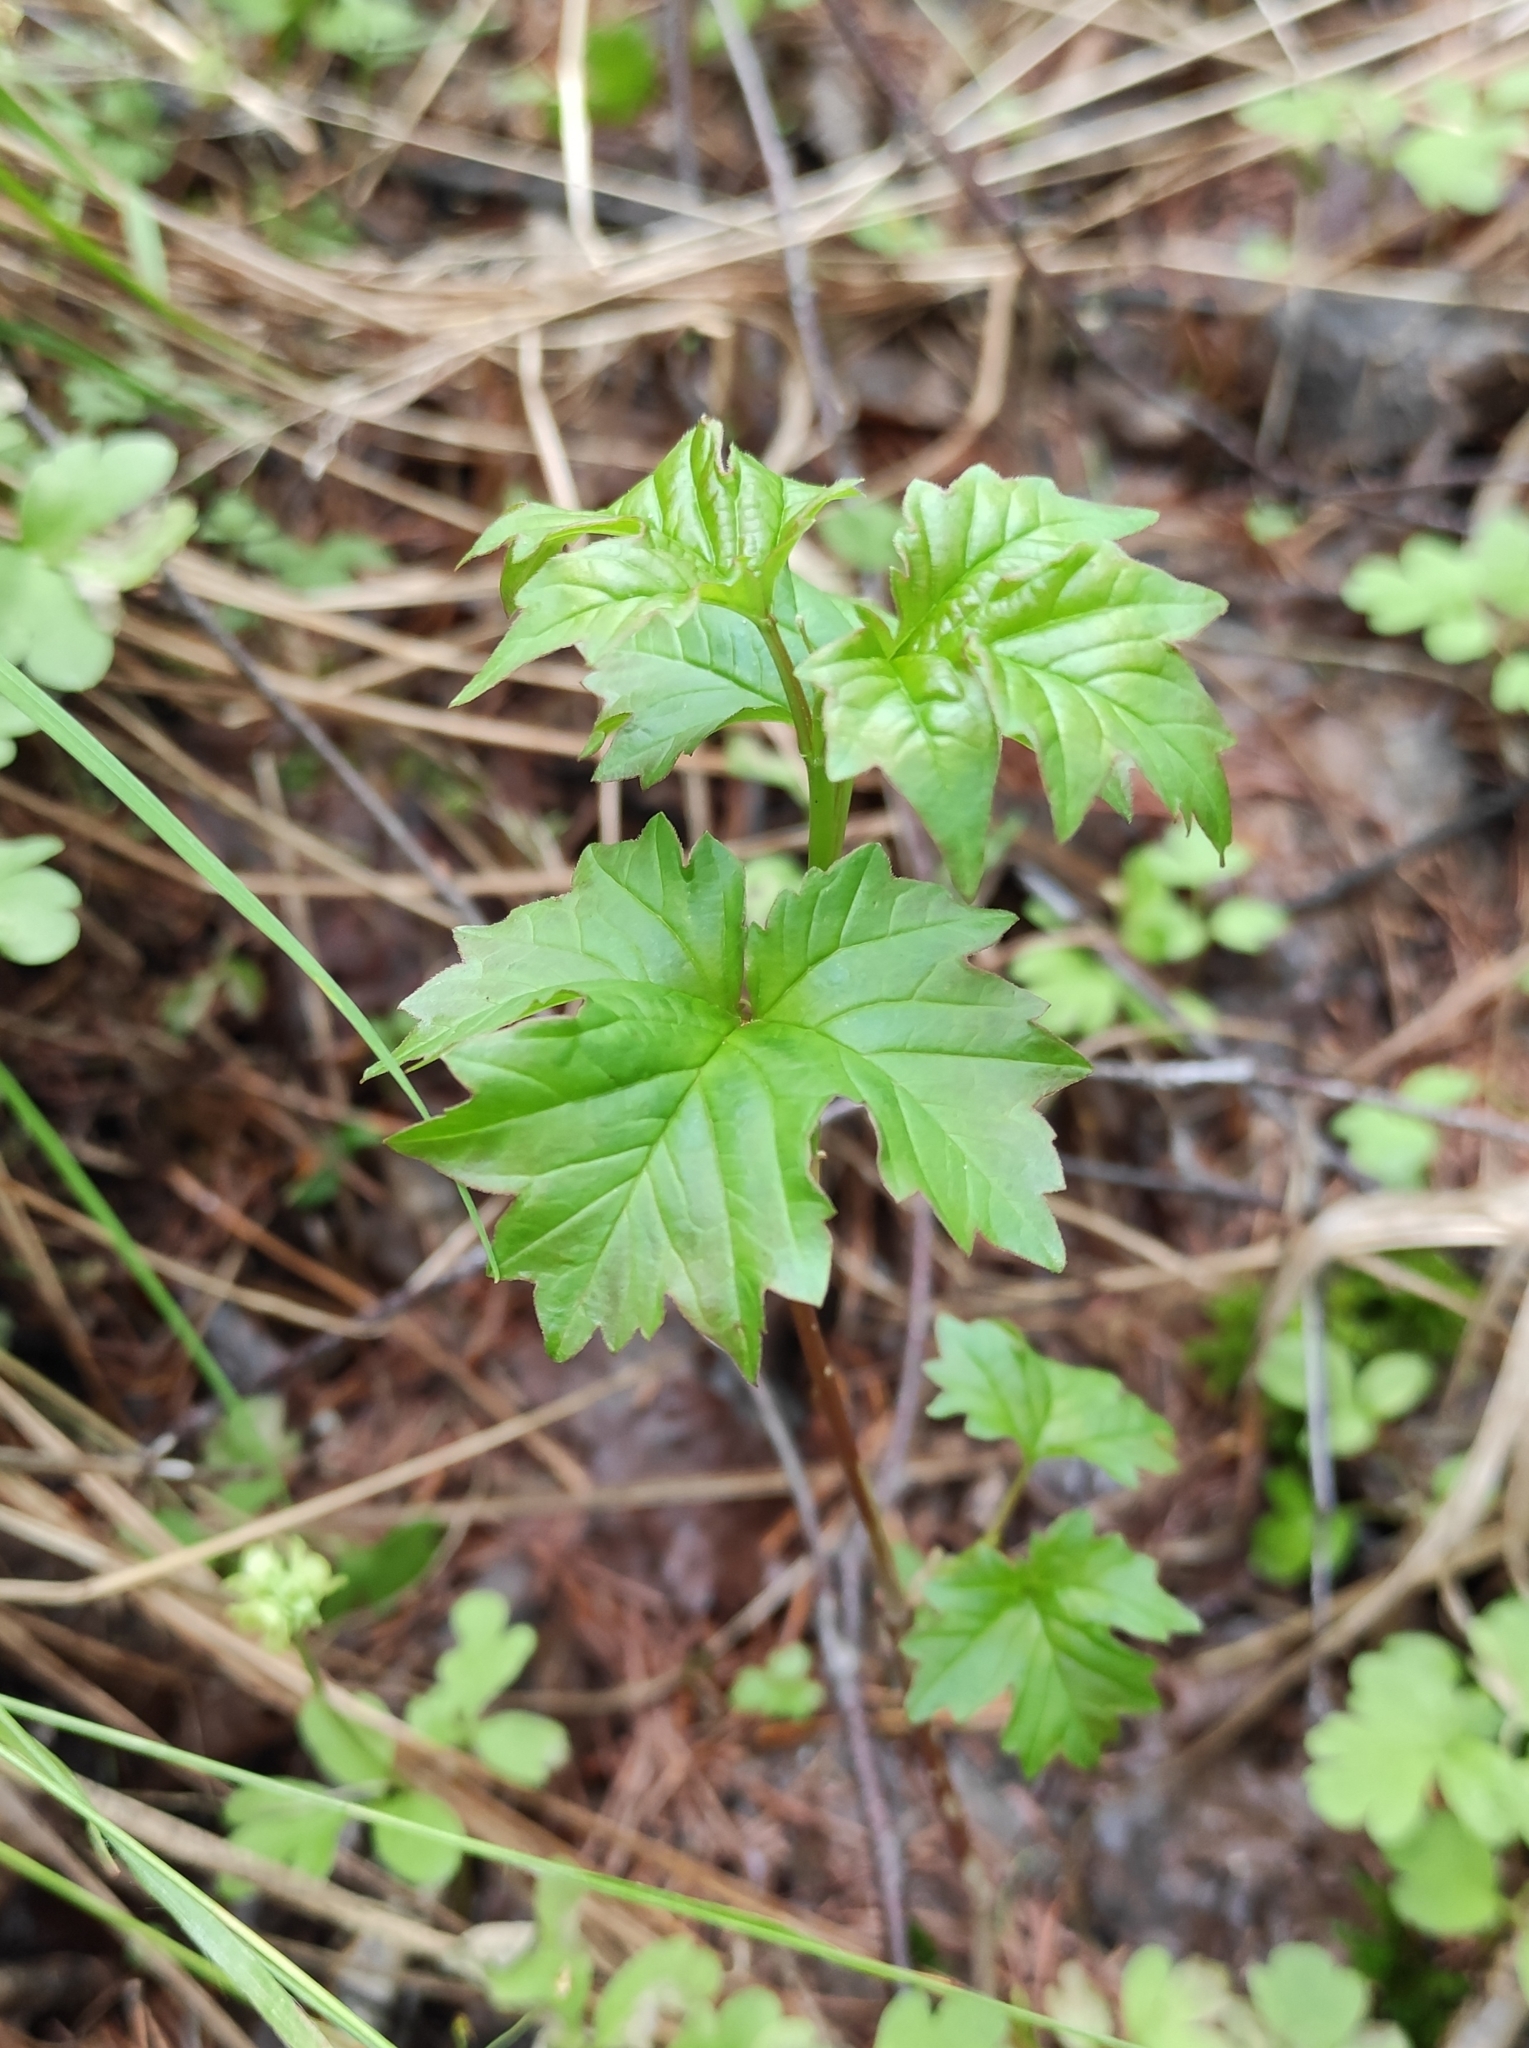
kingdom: Plantae
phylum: Tracheophyta
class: Magnoliopsida
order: Dipsacales
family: Viburnaceae
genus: Viburnum
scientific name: Viburnum opulus
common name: Guelder-rose
